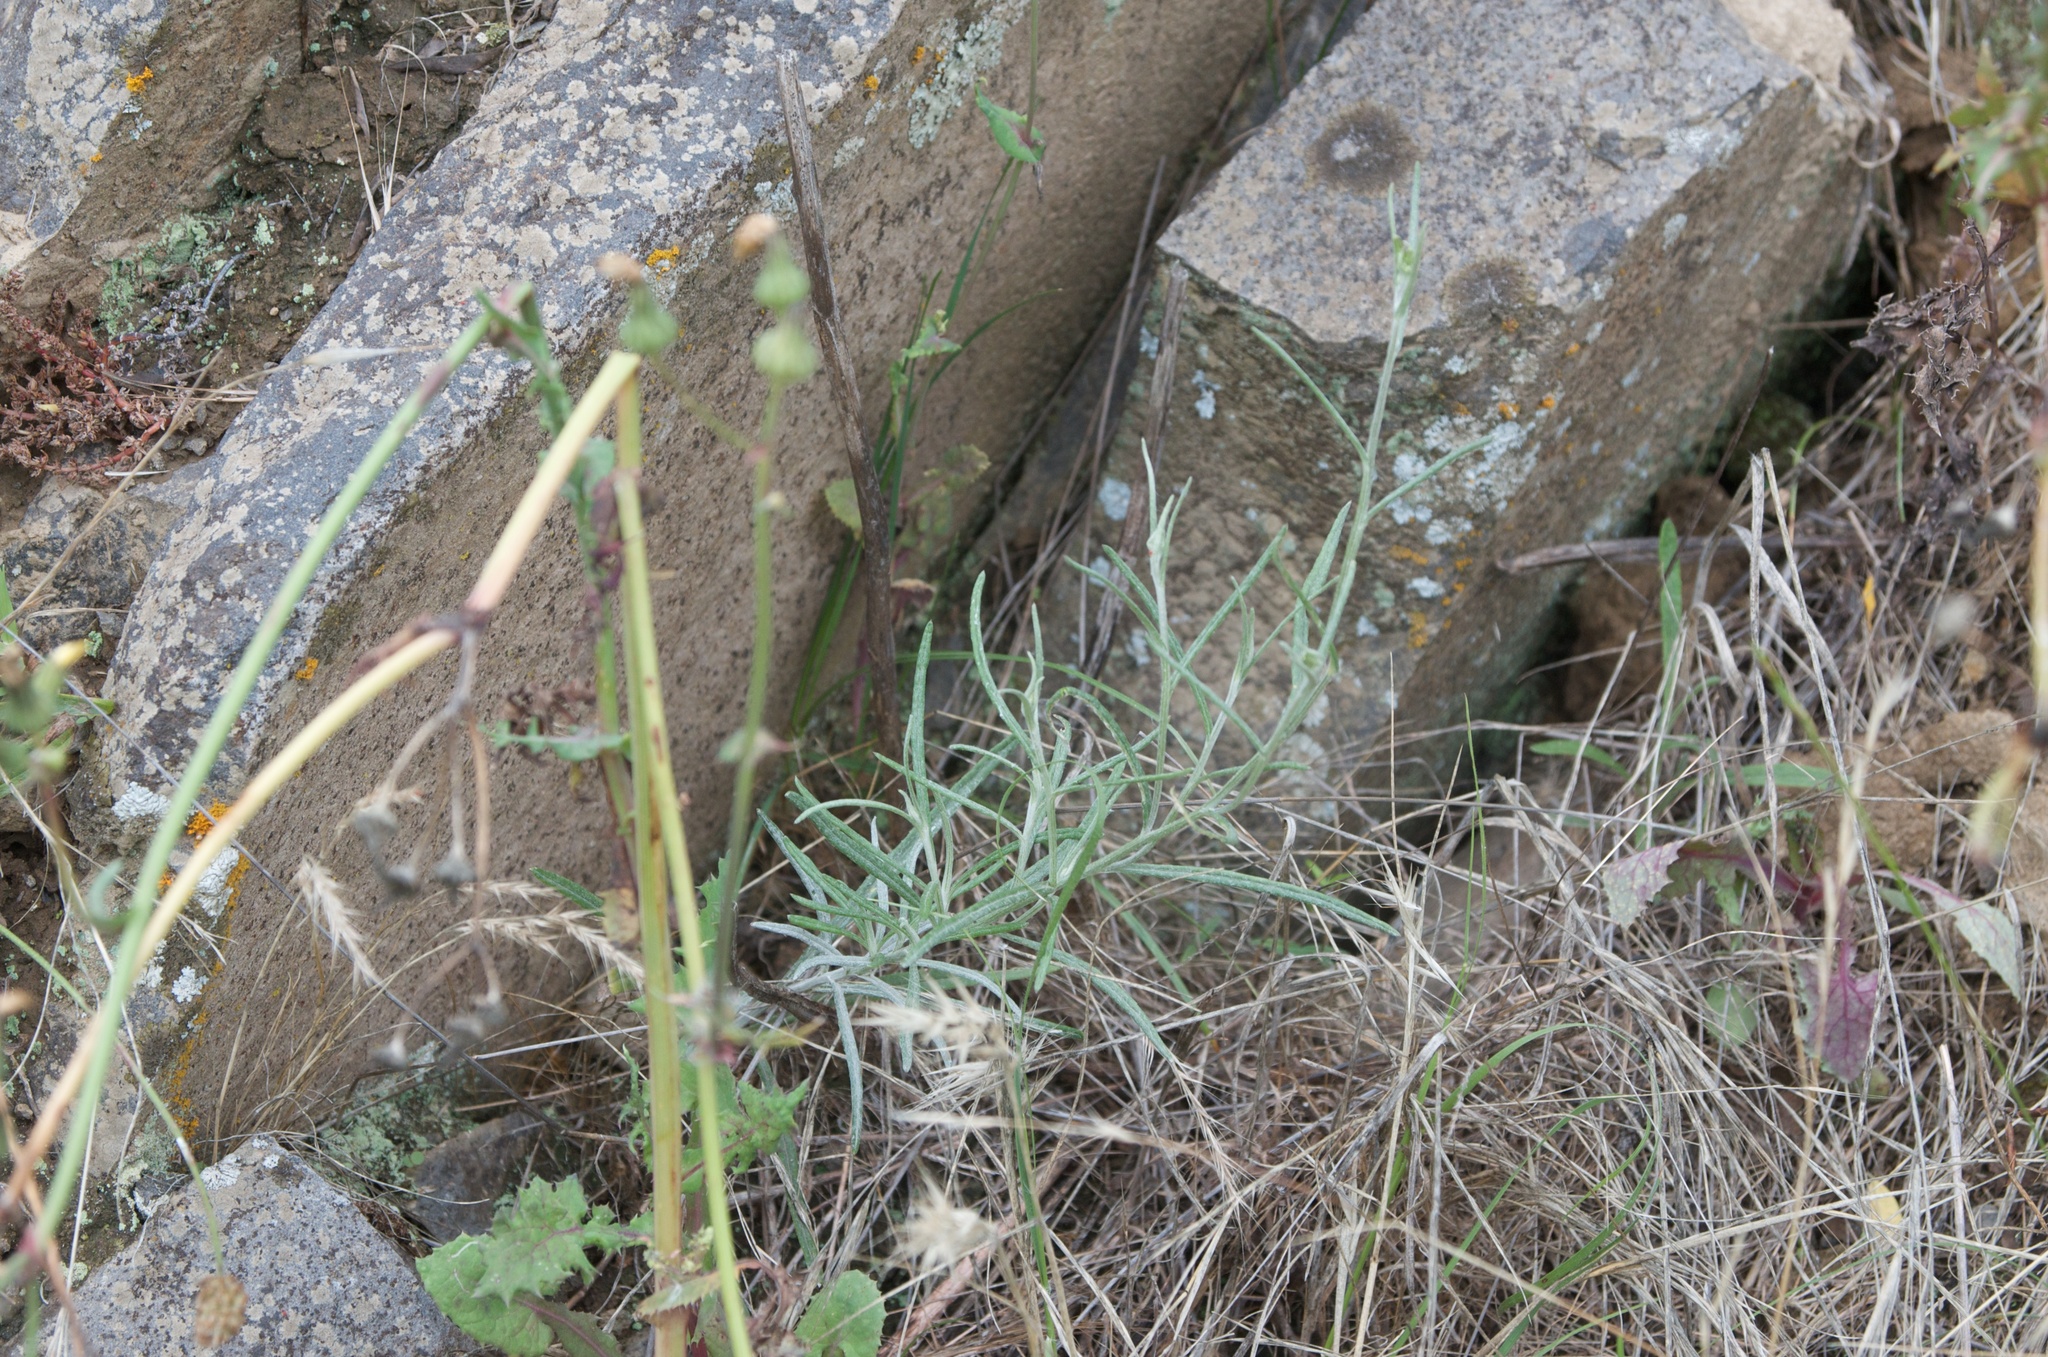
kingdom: Plantae
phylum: Tracheophyta
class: Magnoliopsida
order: Asterales
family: Asteraceae
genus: Senecio
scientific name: Senecio quadridentatus
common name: Cotton fireweed
